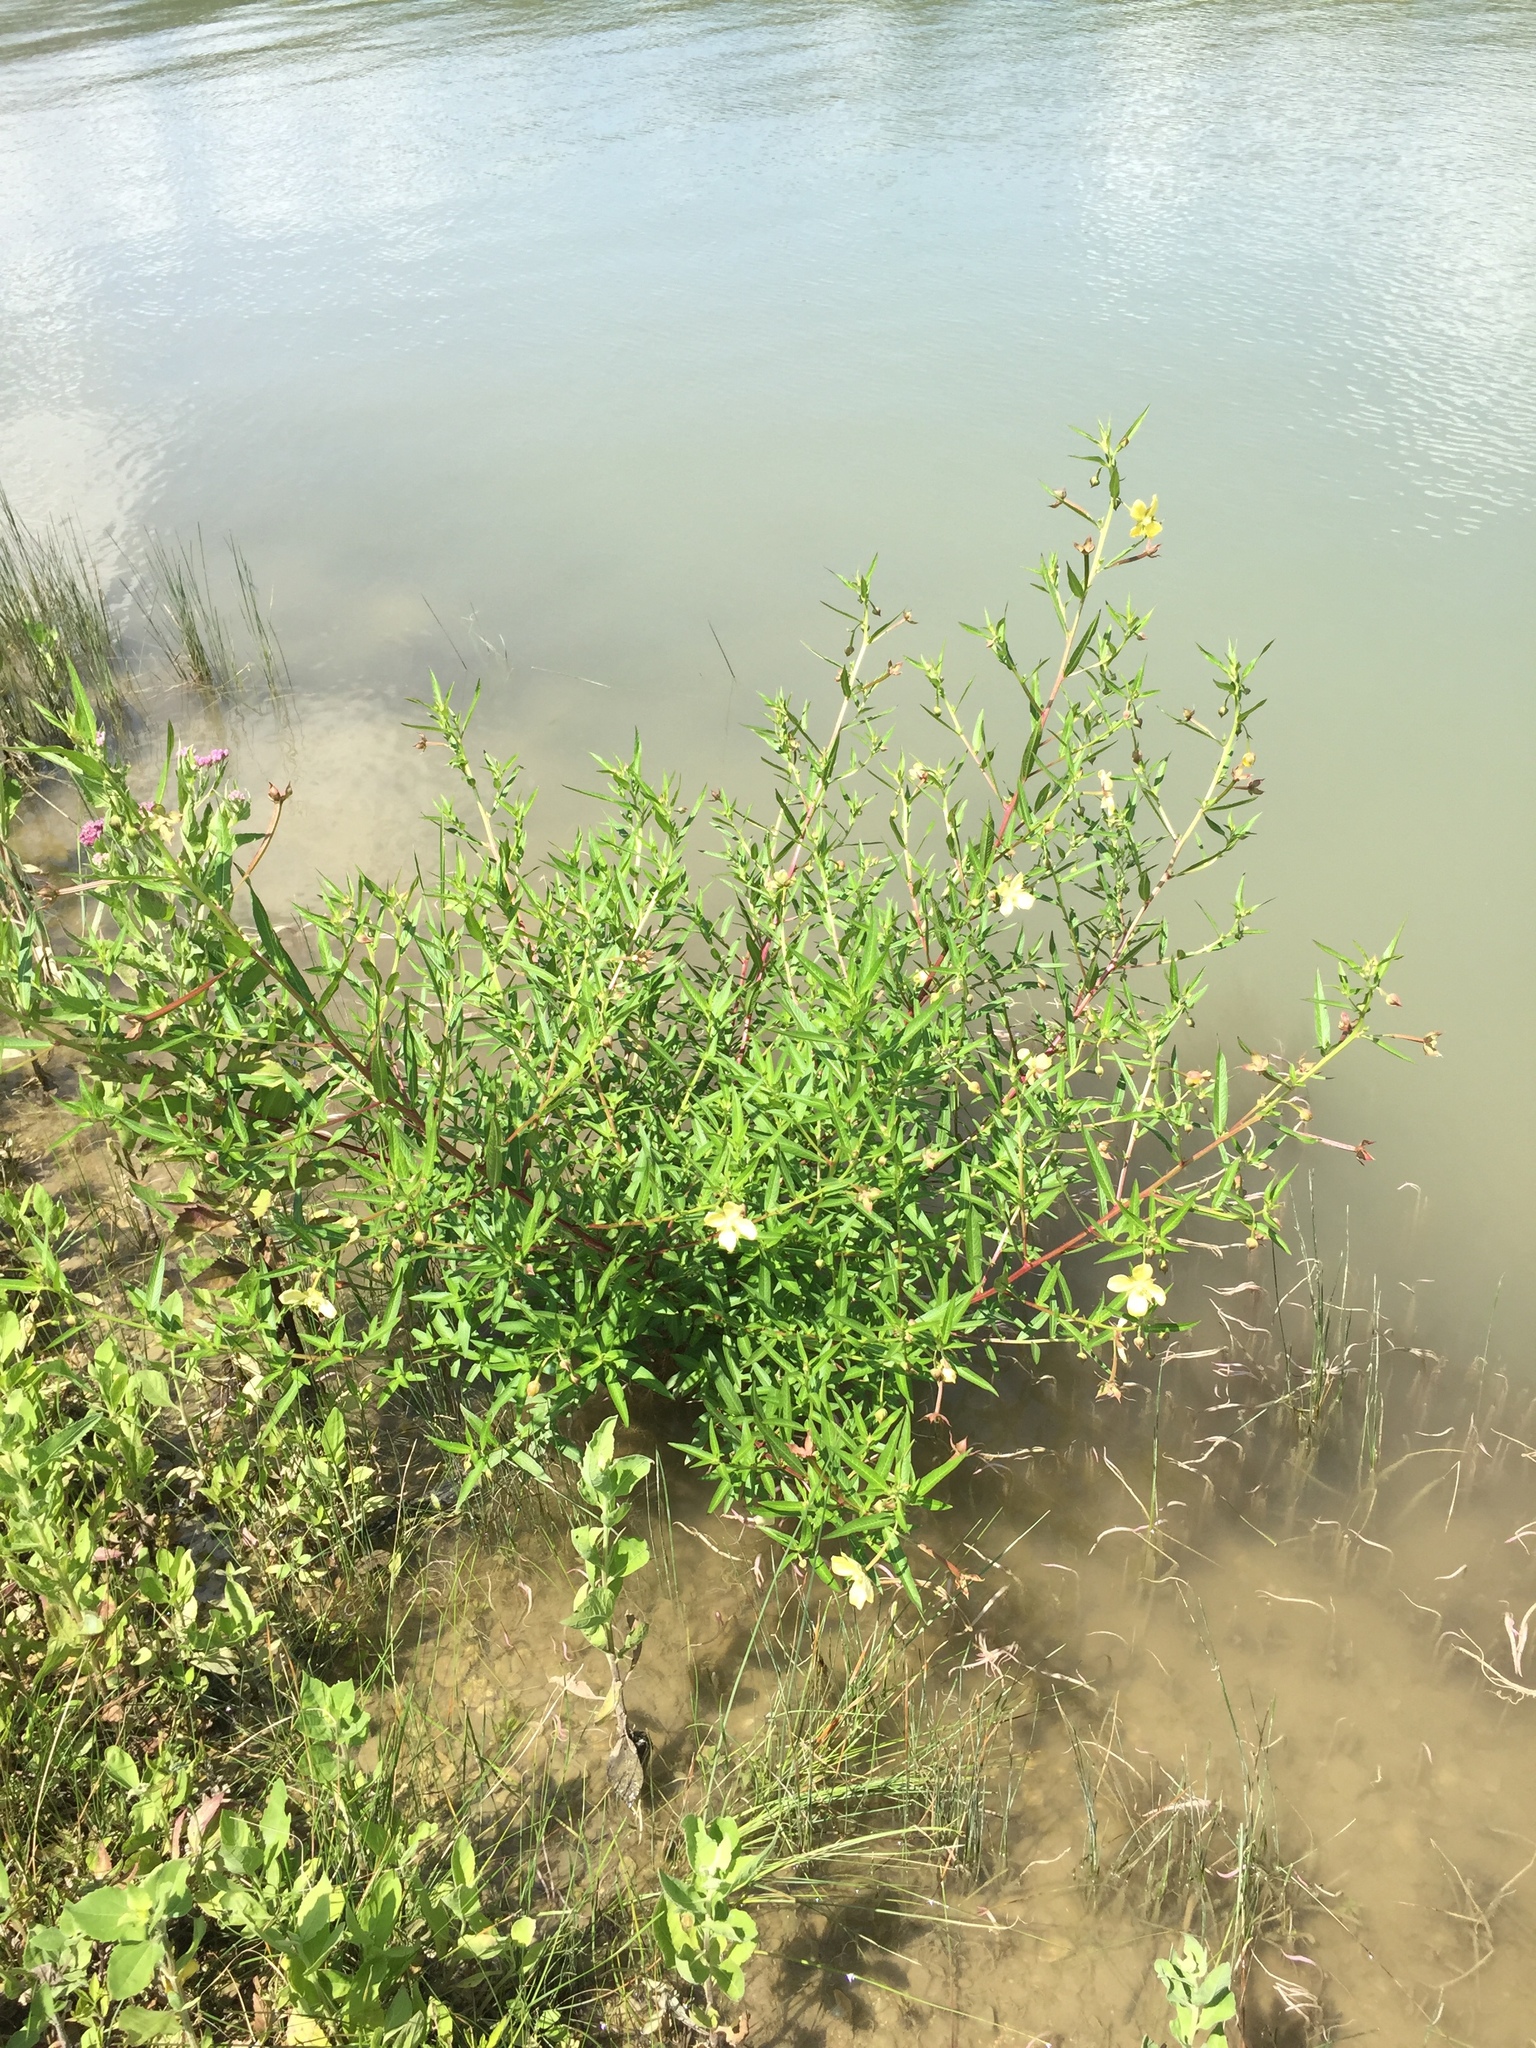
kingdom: Plantae
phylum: Tracheophyta
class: Magnoliopsida
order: Myrtales
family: Onagraceae
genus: Ludwigia
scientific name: Ludwigia octovalvis
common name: Water-primrose
